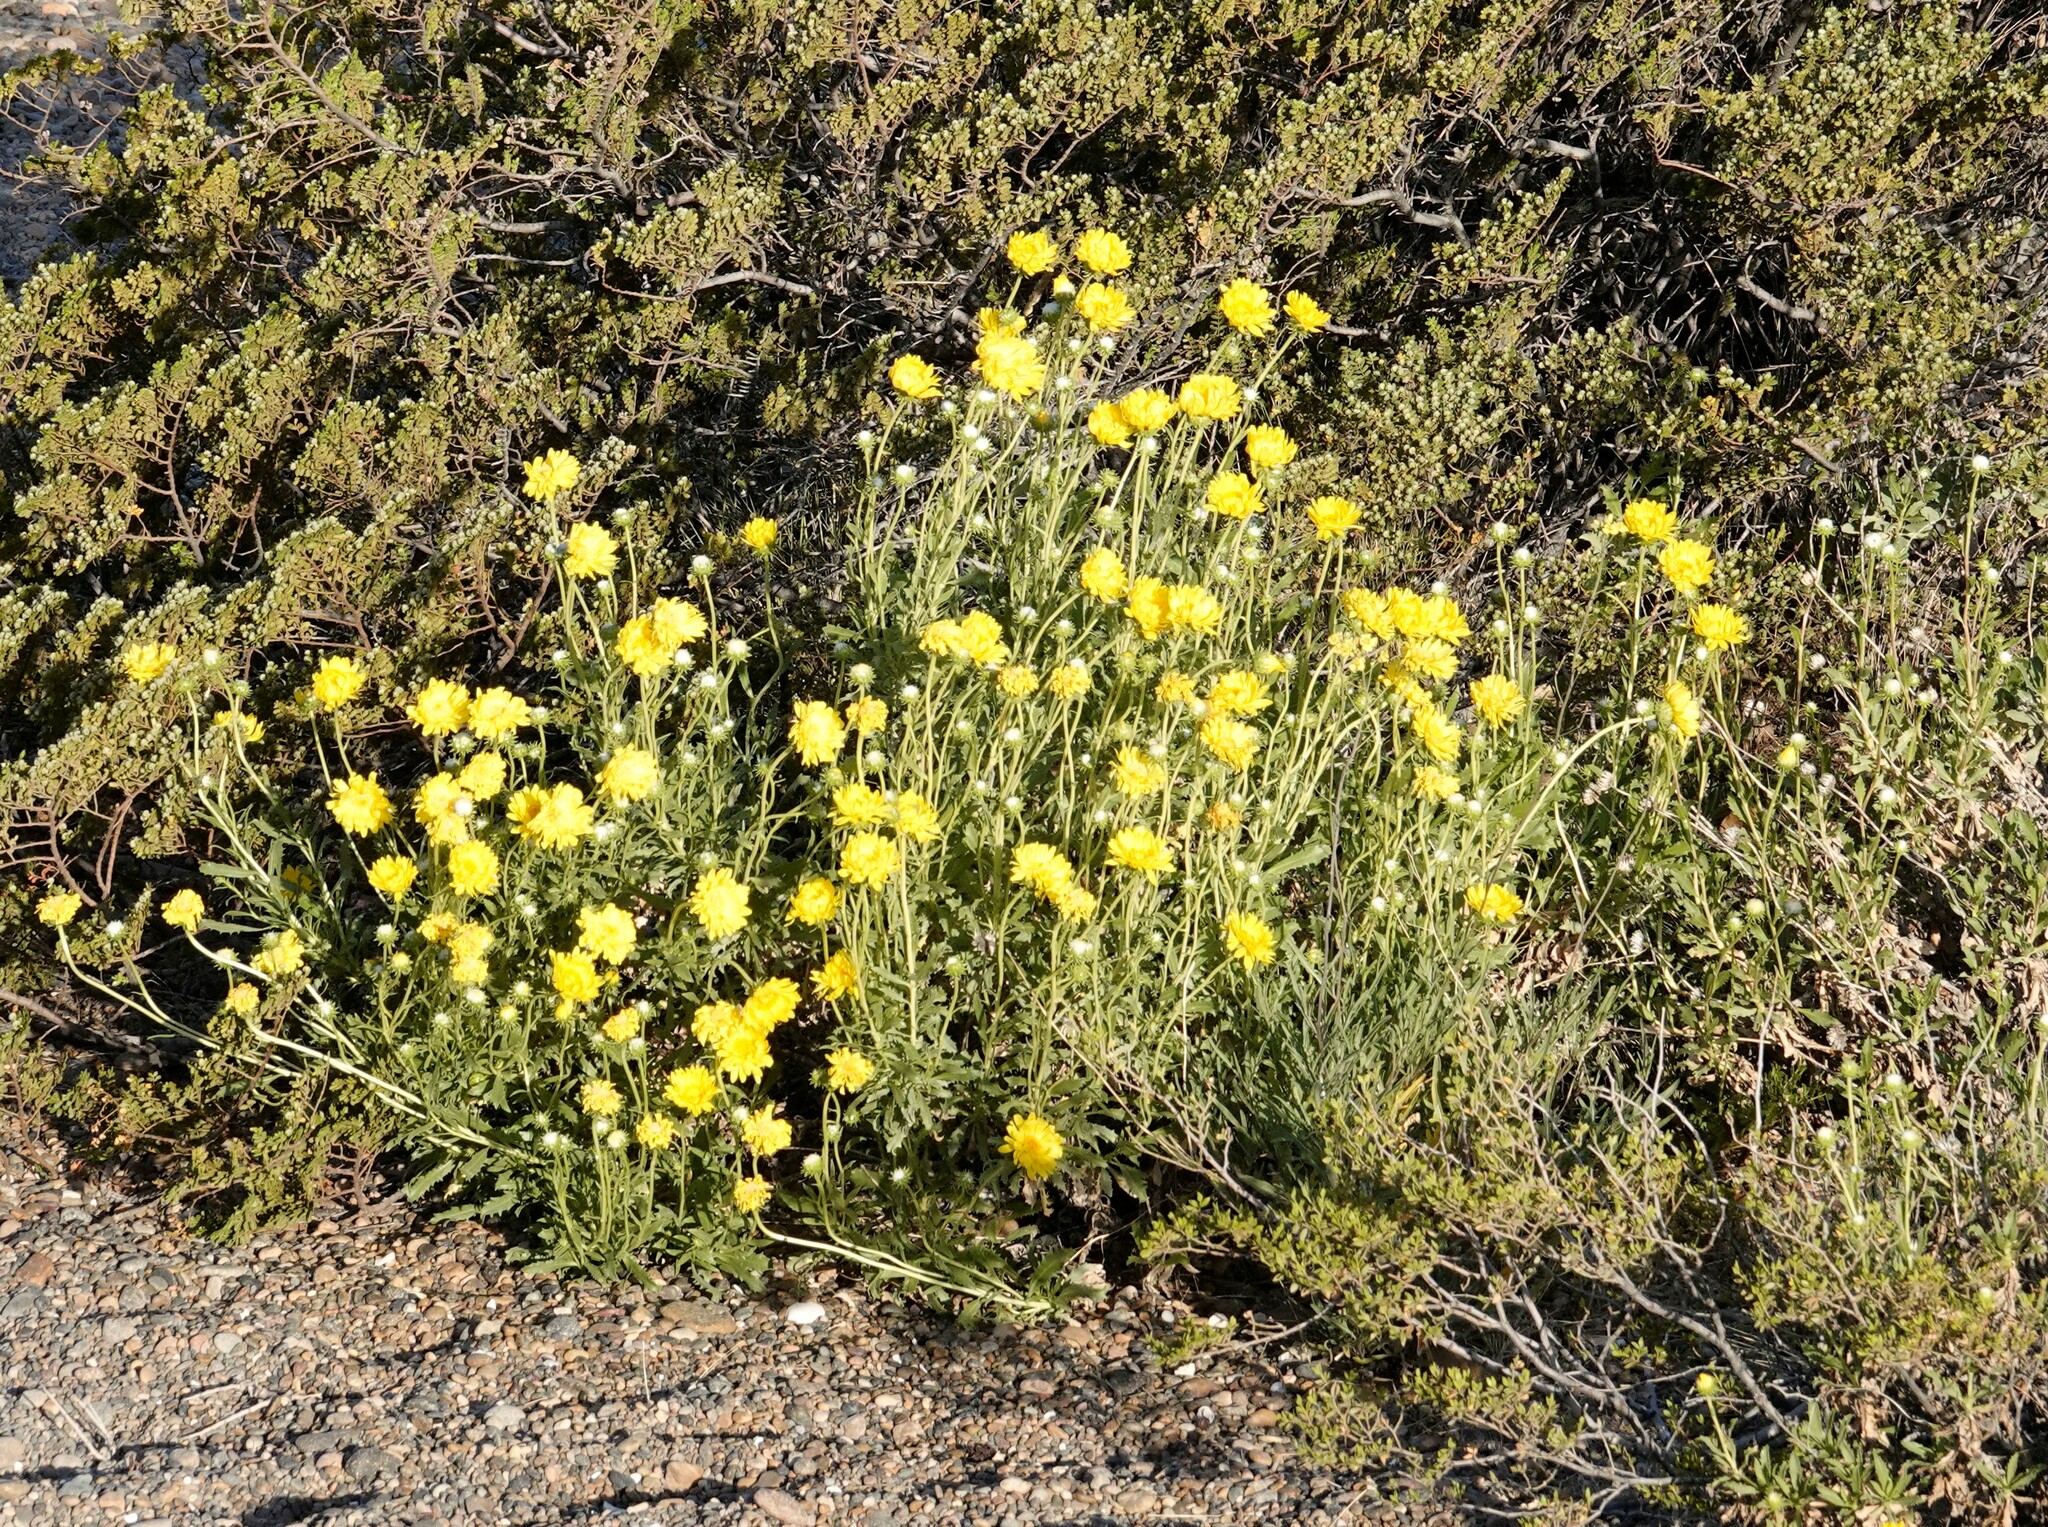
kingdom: Plantae
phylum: Tracheophyta
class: Magnoliopsida
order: Asterales
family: Asteraceae
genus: Grindelia
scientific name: Grindelia chiloensis
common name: Shrubby gumweed
